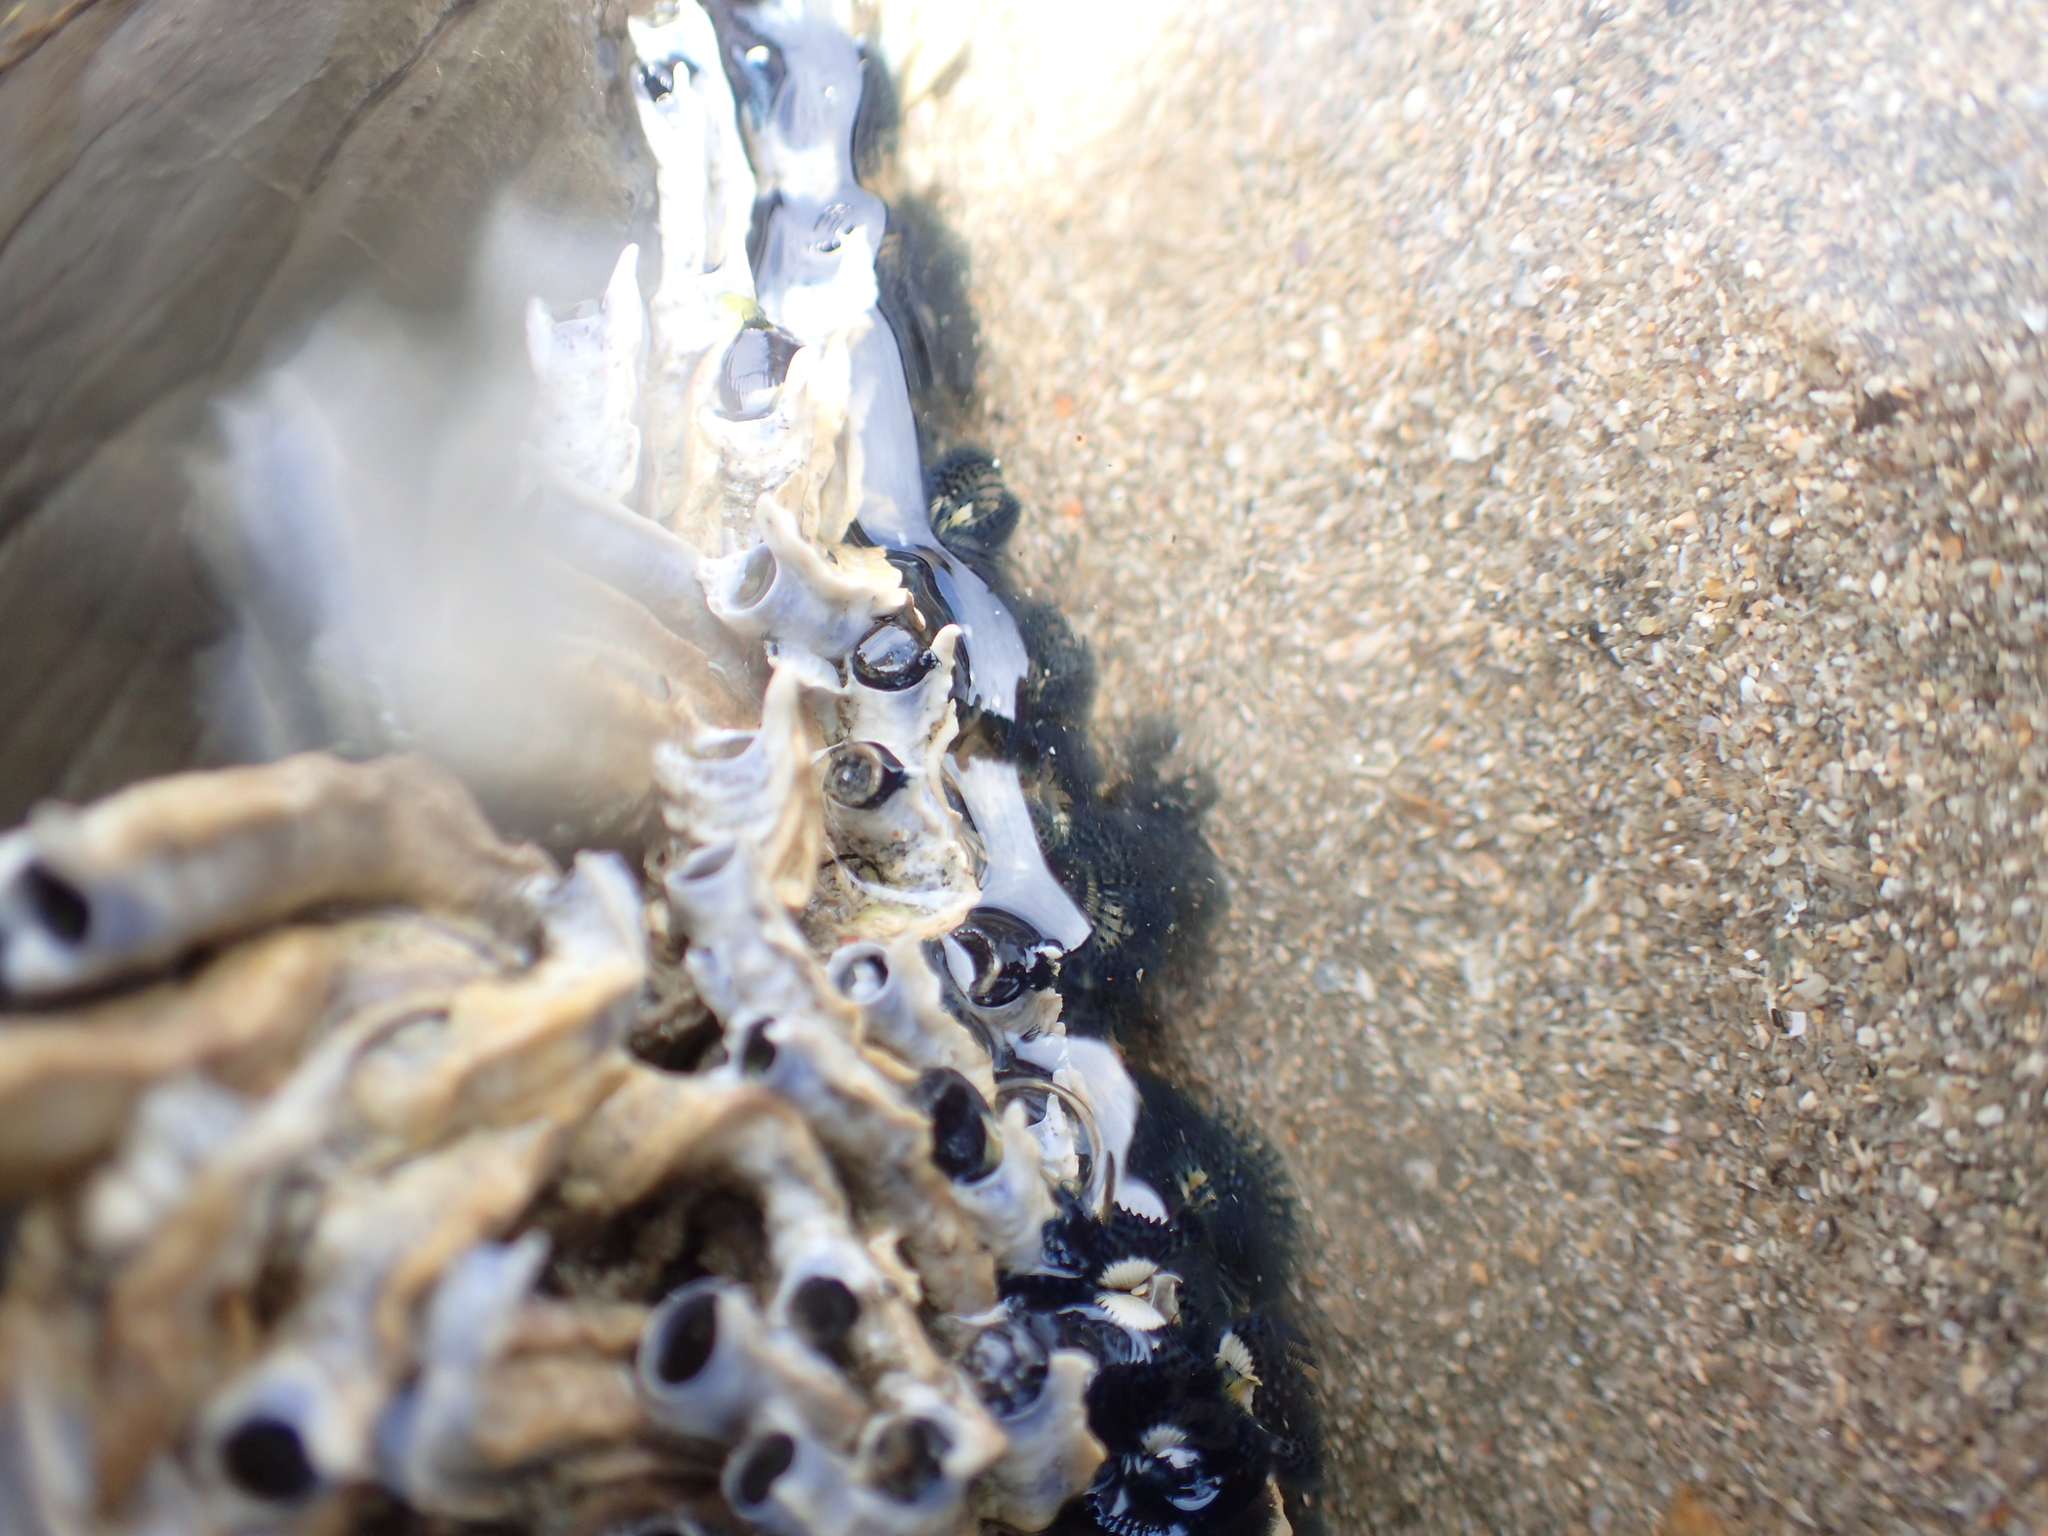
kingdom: Animalia
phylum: Annelida
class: Polychaeta
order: Sabellida
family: Serpulidae
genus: Spirobranchus
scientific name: Spirobranchus cariniferus
